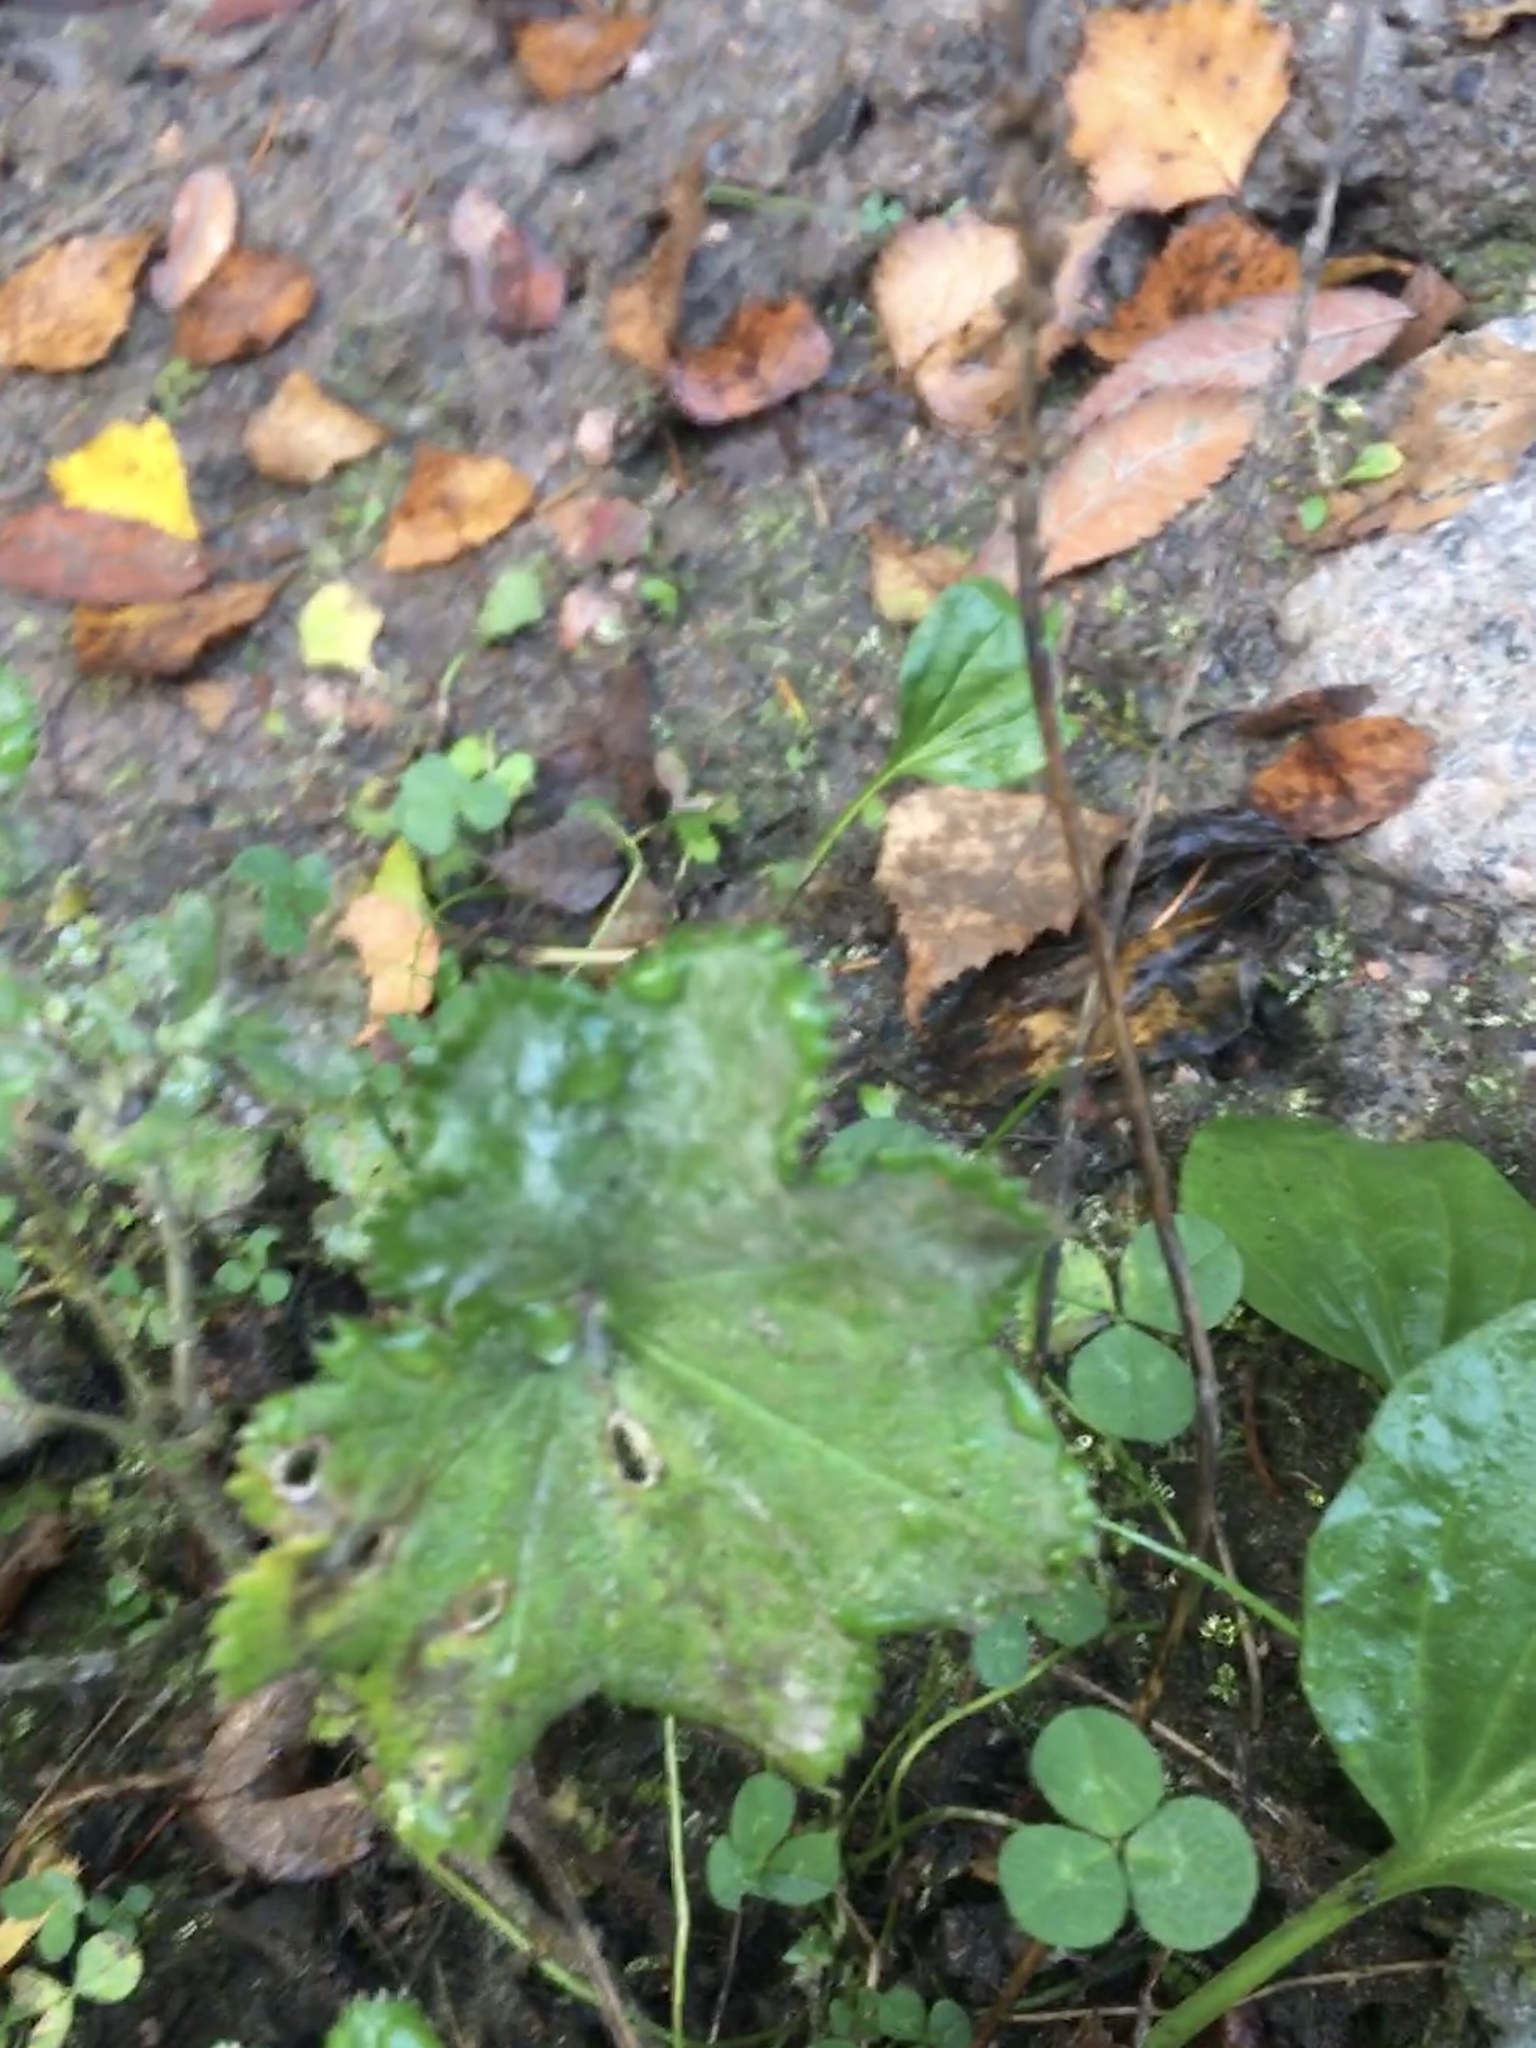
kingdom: Plantae
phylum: Tracheophyta
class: Magnoliopsida
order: Rosales
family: Rosaceae
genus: Alchemilla
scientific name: Alchemilla
